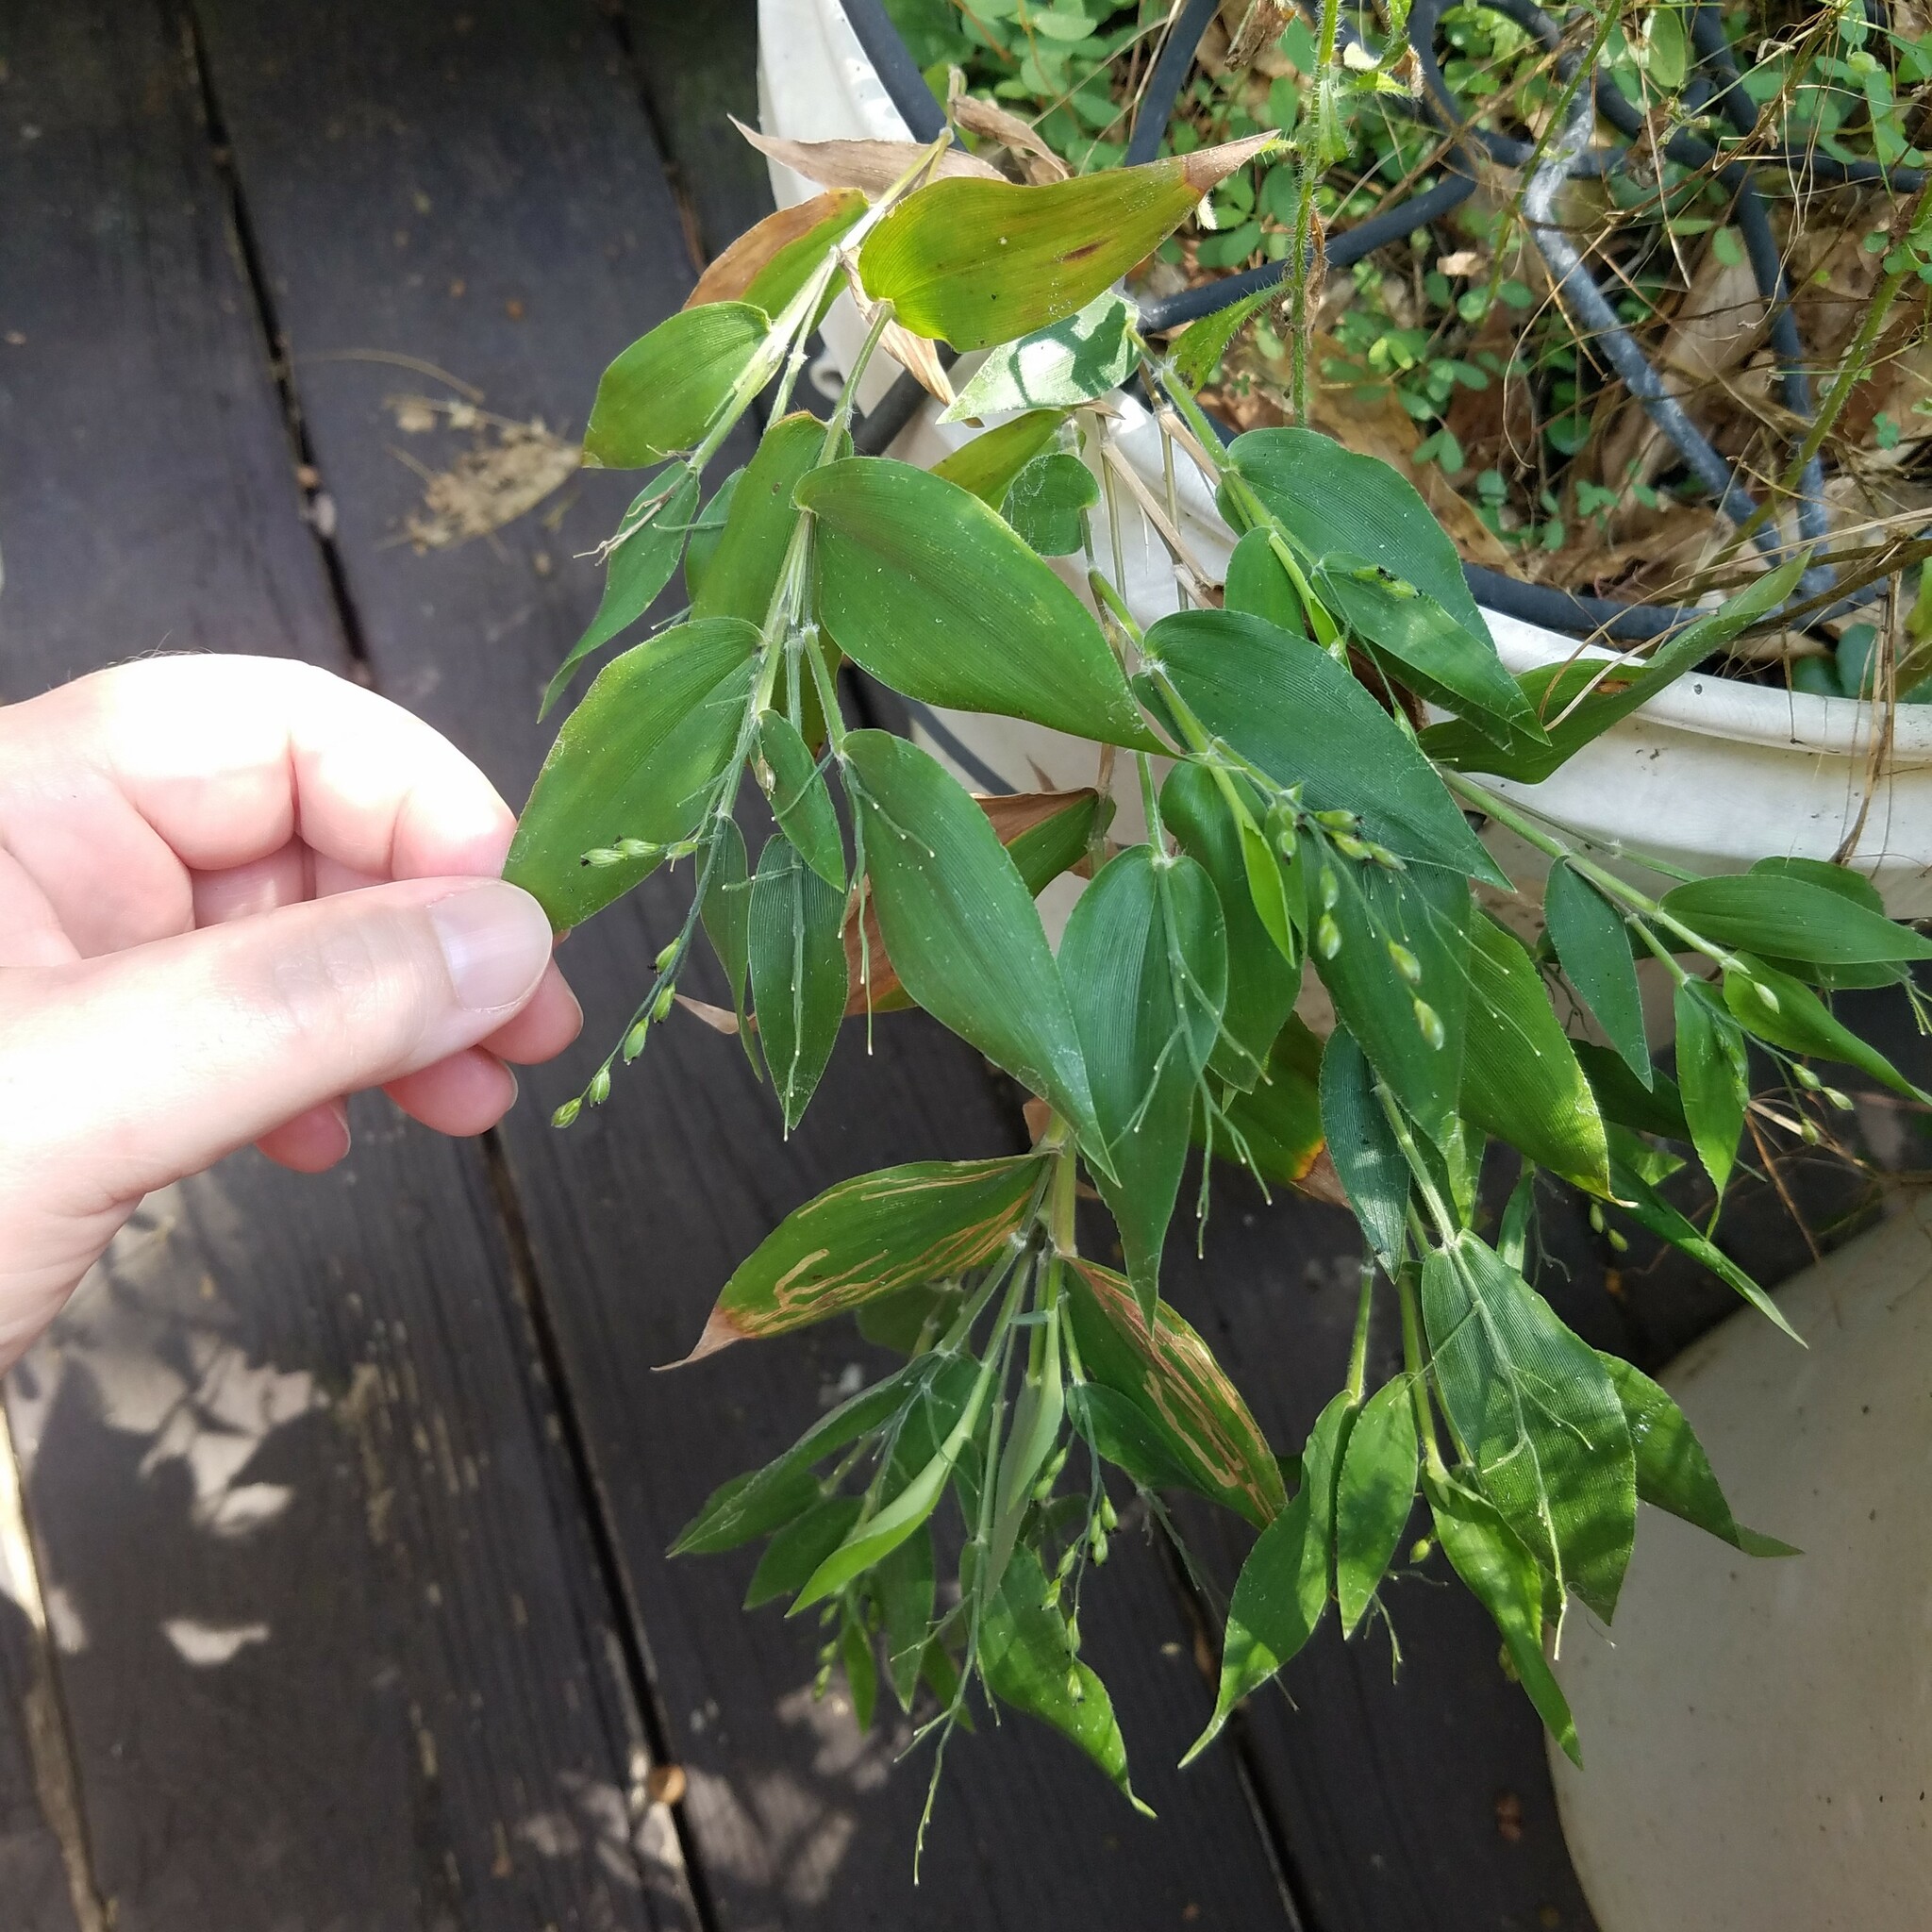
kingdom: Plantae
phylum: Tracheophyta
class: Liliopsida
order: Poales
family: Poaceae
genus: Dichanthelium
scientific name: Dichanthelium boscii
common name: Bosc's panic grass
